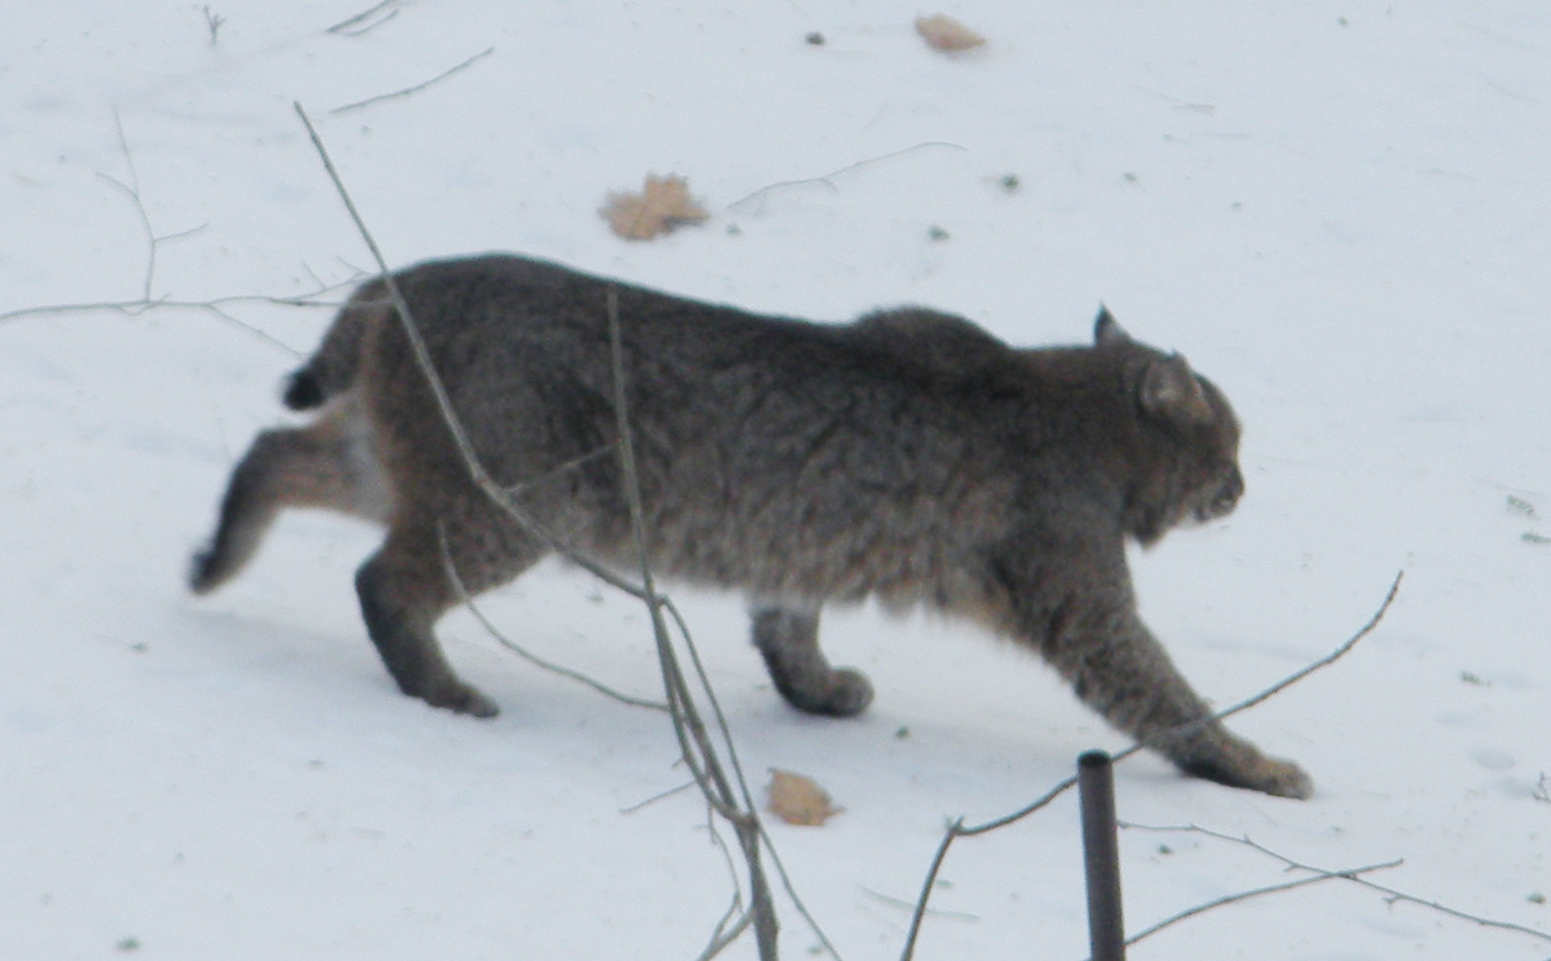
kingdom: Animalia
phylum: Chordata
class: Mammalia
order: Carnivora
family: Felidae
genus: Lynx
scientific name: Lynx rufus
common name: Bobcat
